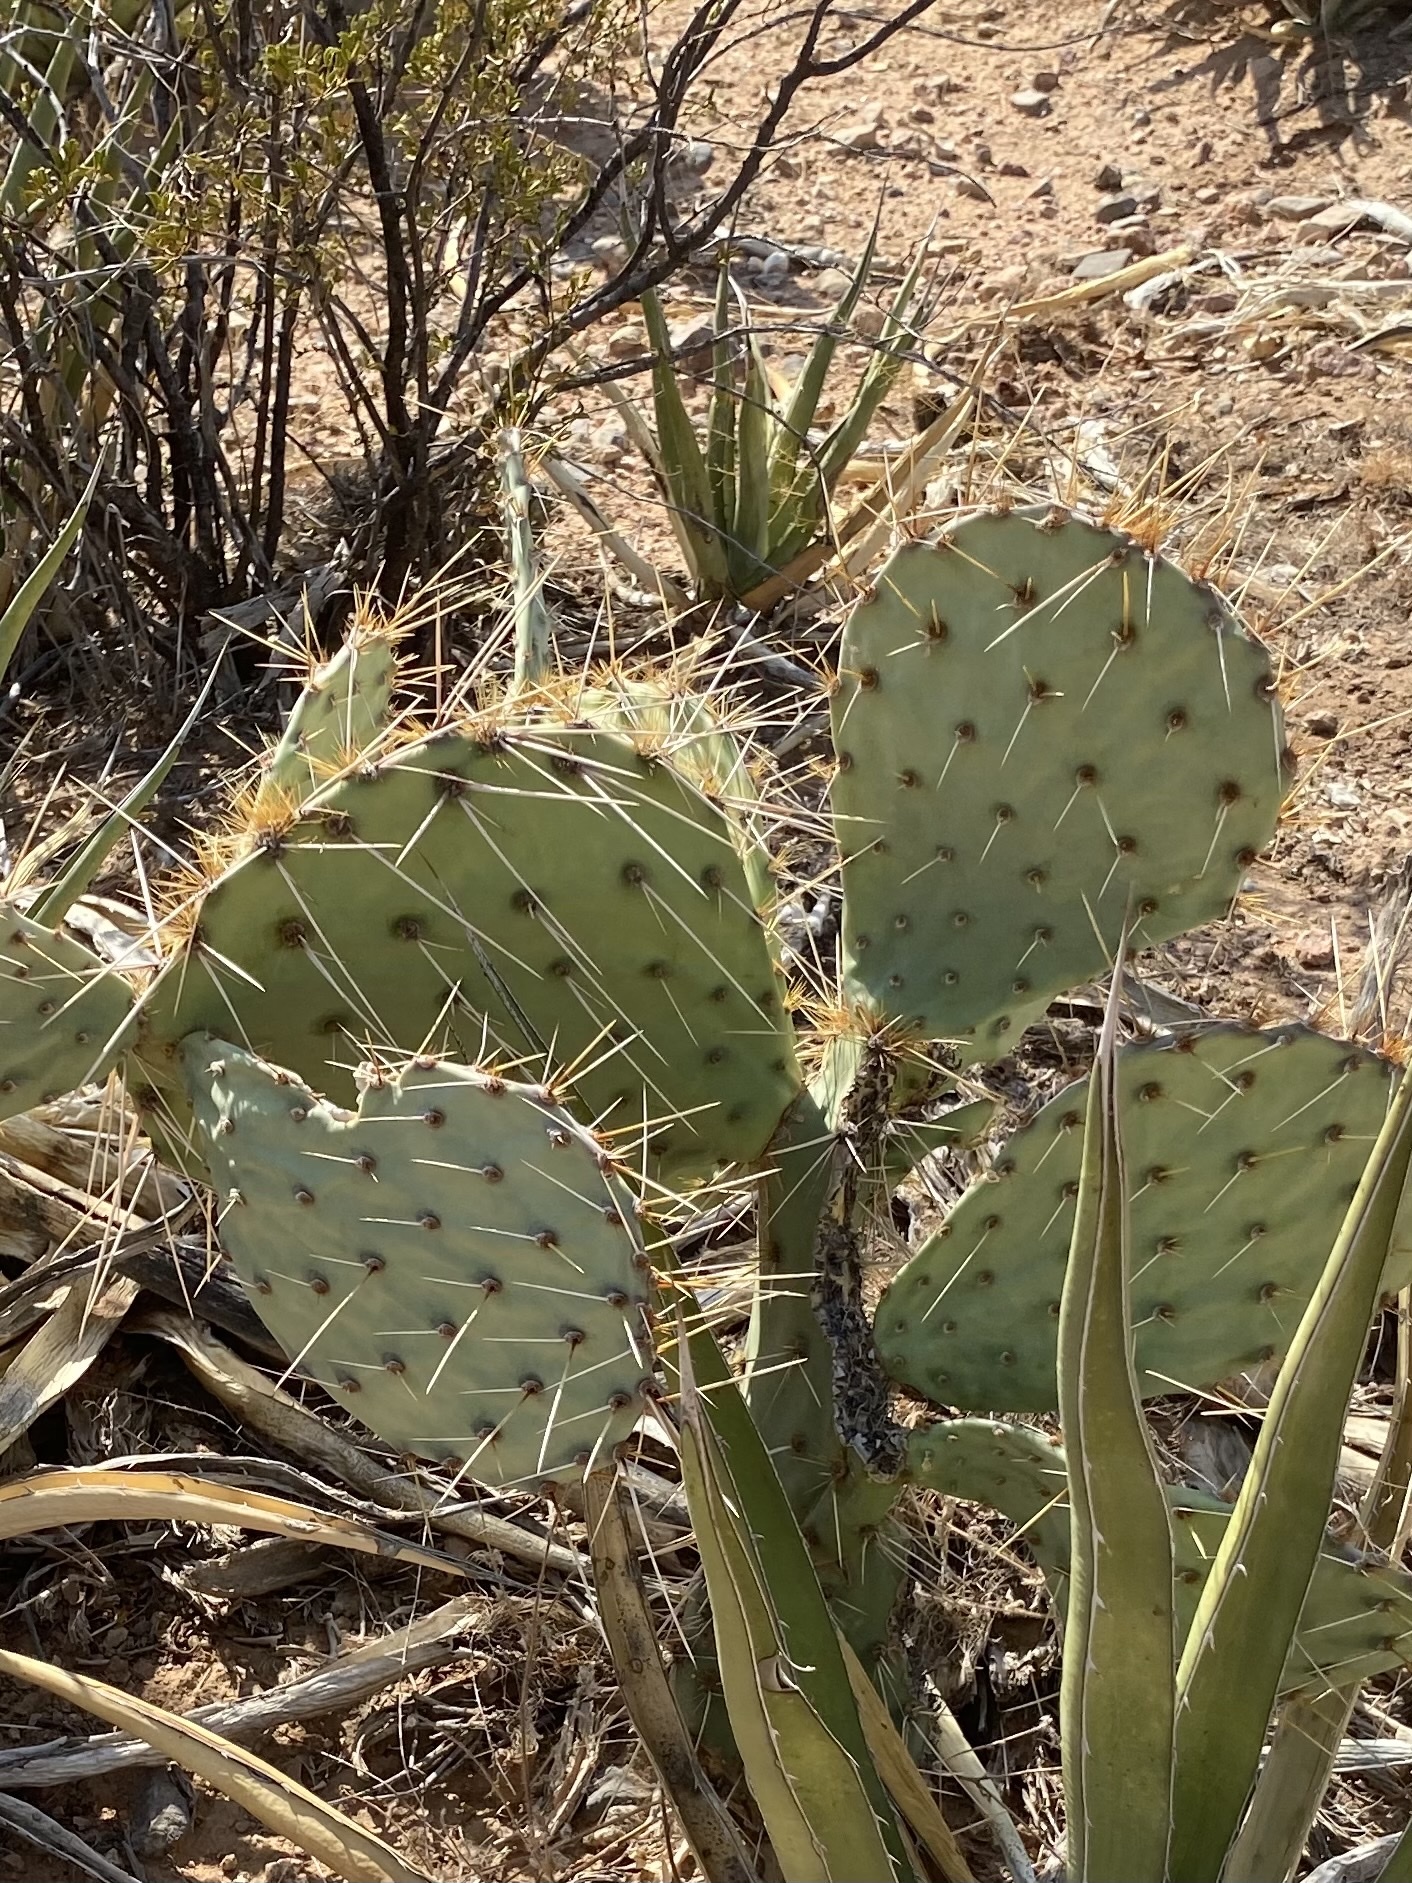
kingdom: Plantae
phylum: Tracheophyta
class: Magnoliopsida
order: Caryophyllales
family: Cactaceae
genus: Opuntia
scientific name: Opuntia engelmannii
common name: Cactus-apple
